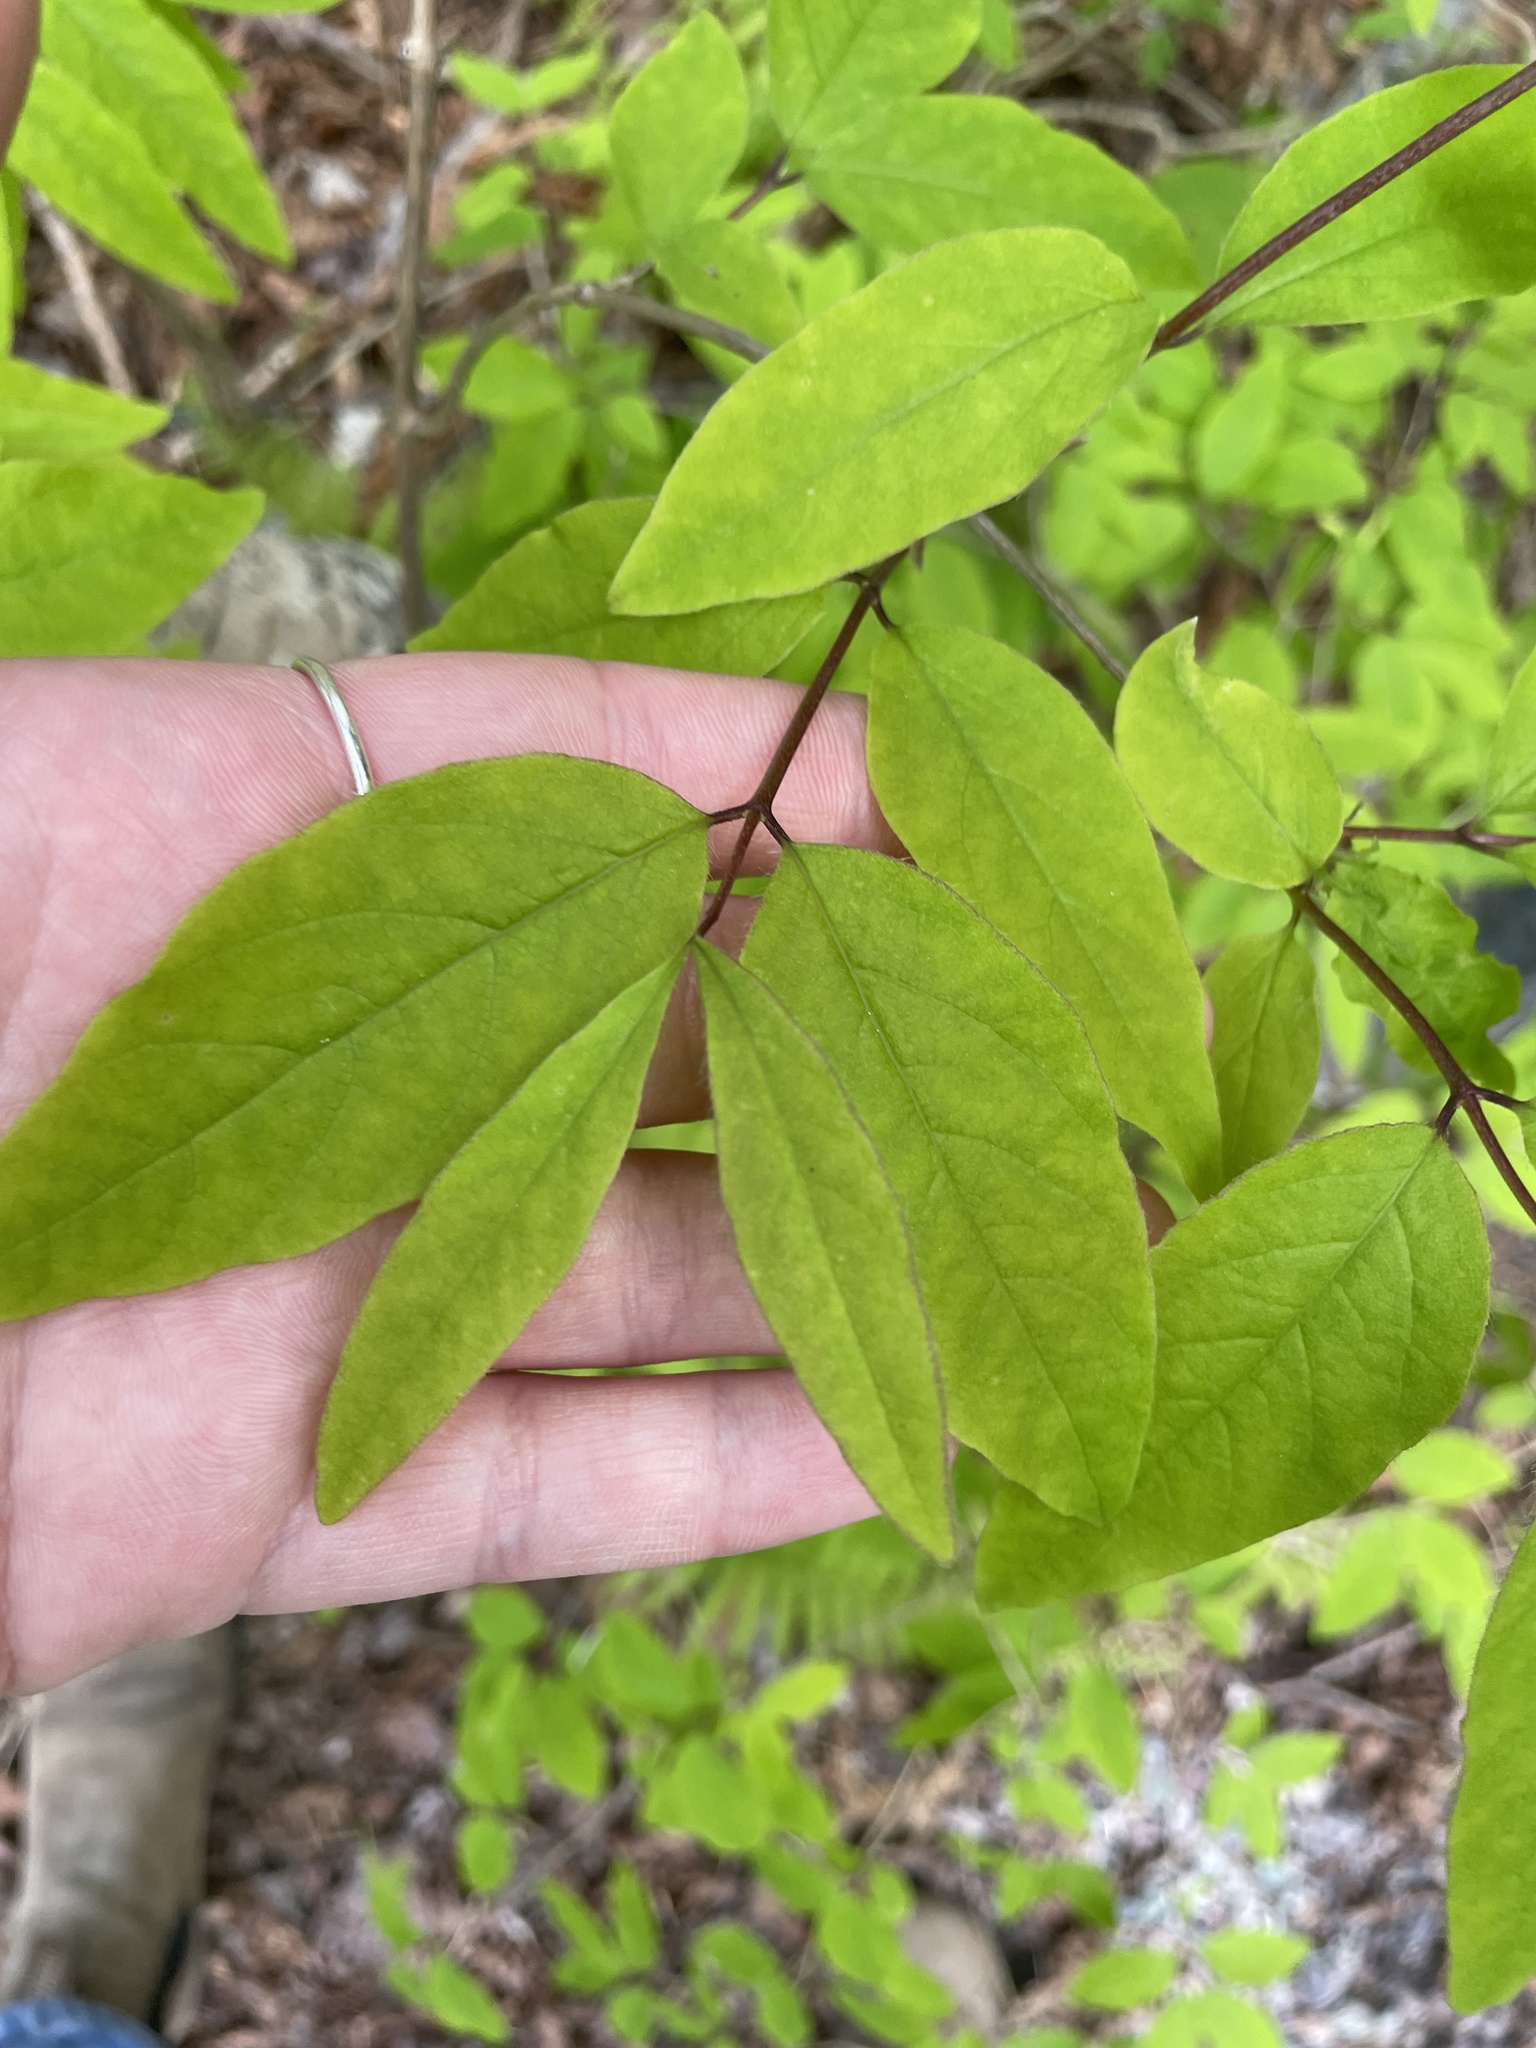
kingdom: Plantae
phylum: Tracheophyta
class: Magnoliopsida
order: Dipsacales
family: Caprifoliaceae
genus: Lonicera
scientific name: Lonicera canadensis
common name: American fly-honeysuckle
